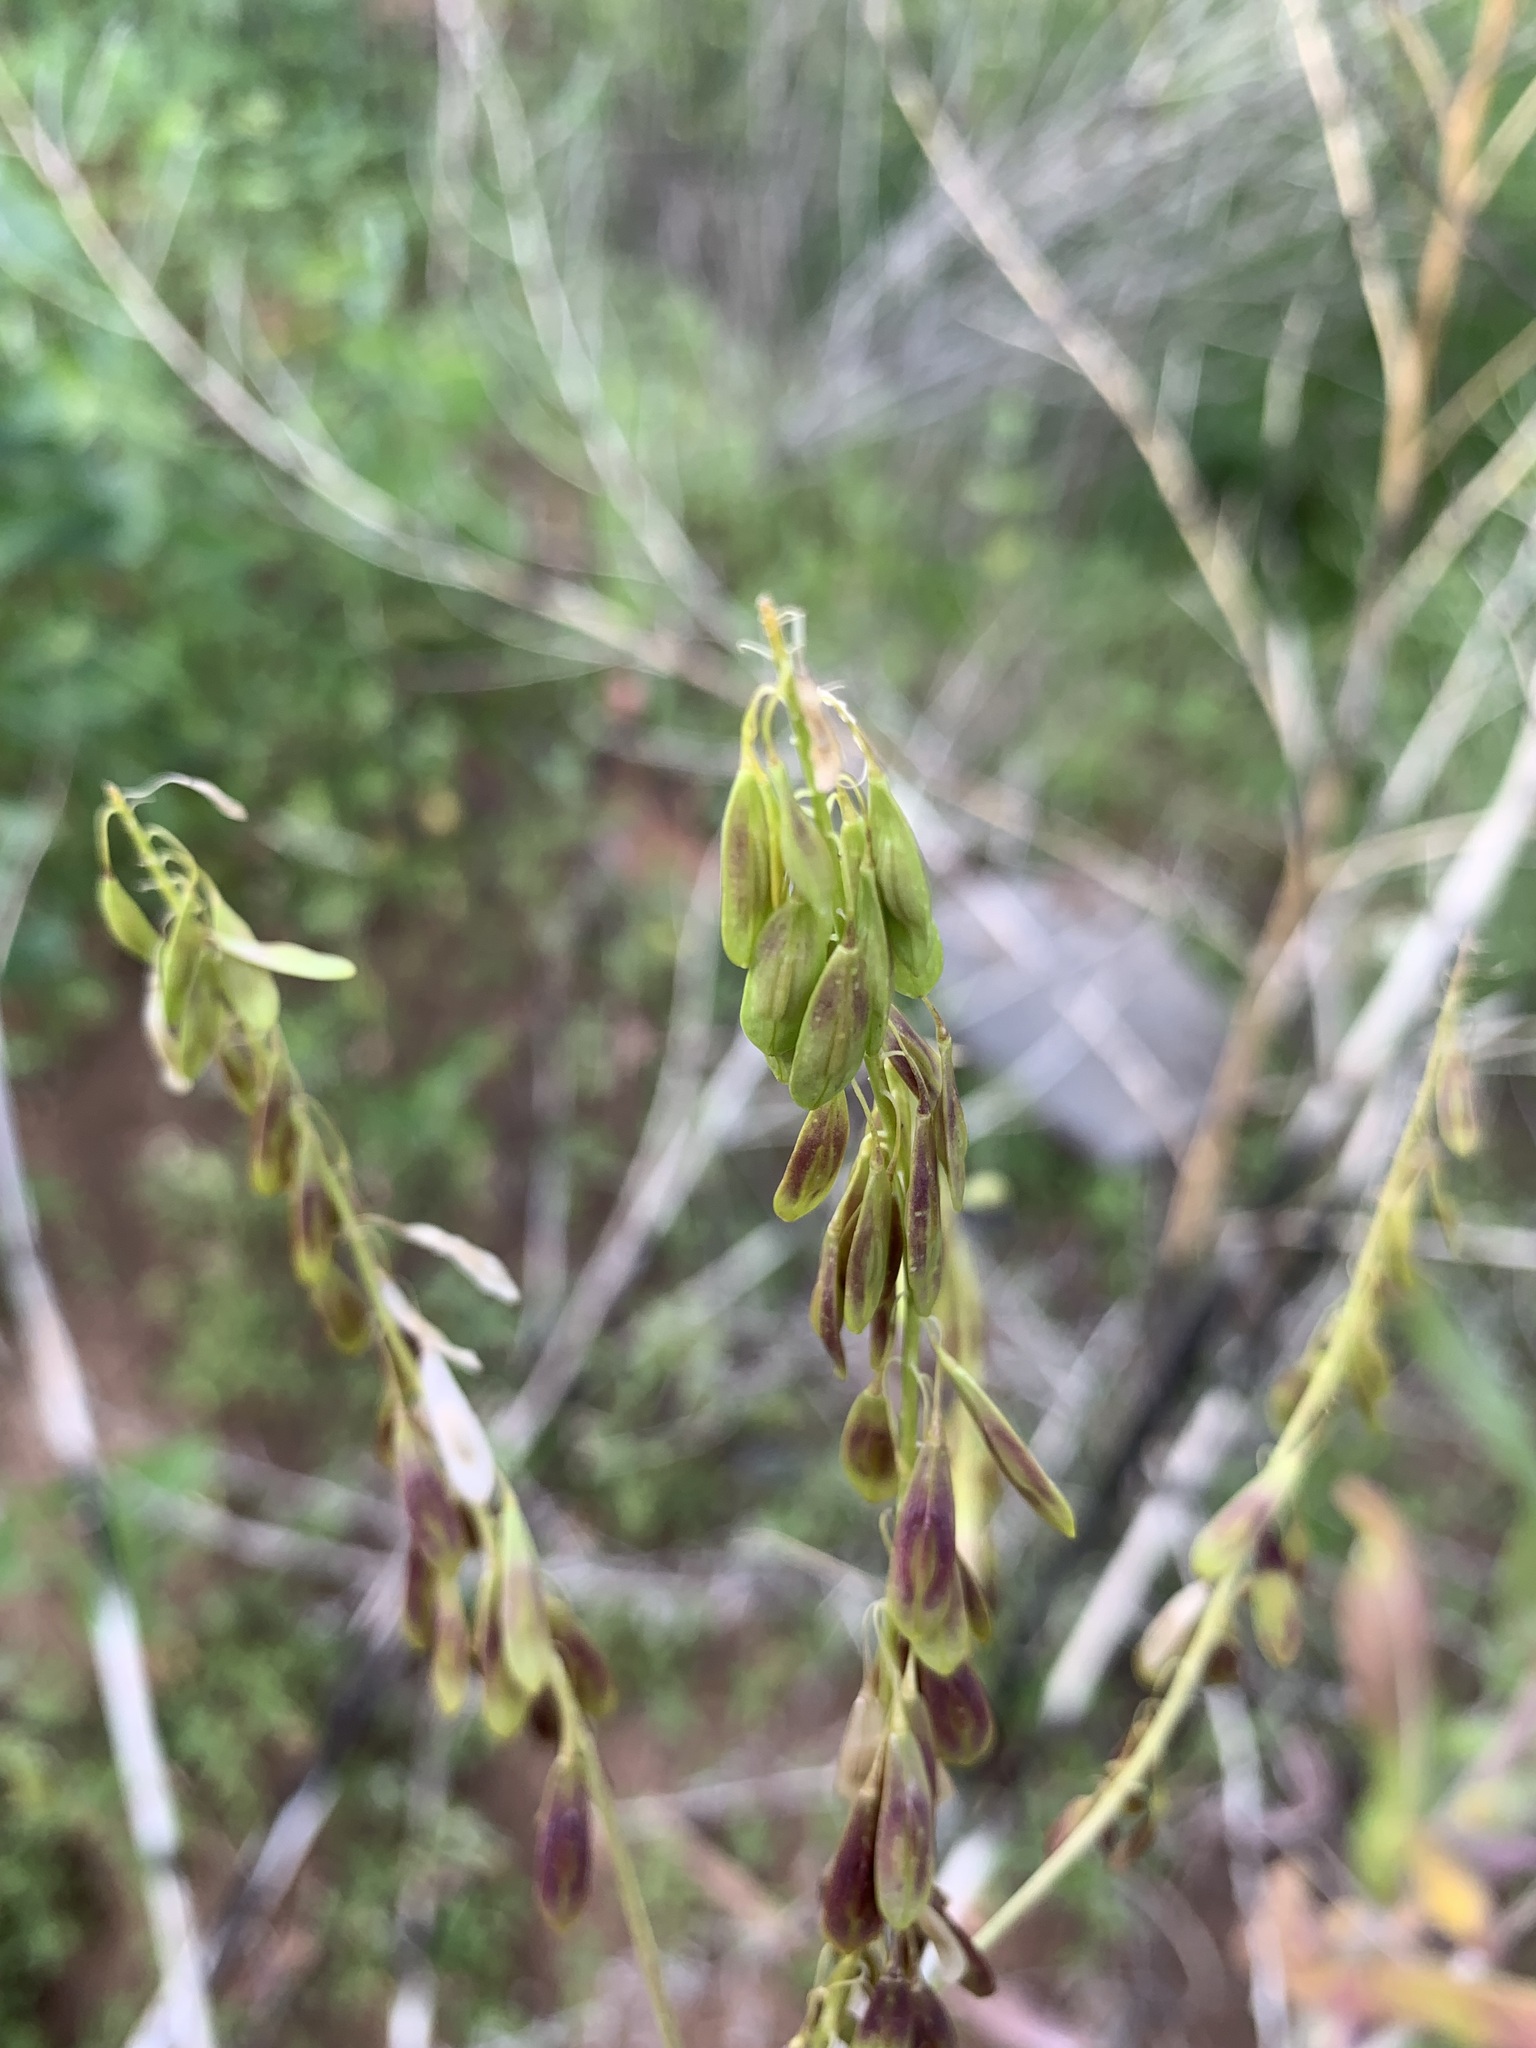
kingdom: Plantae
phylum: Tracheophyta
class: Magnoliopsida
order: Brassicales
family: Brassicaceae
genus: Isatis
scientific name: Isatis costata
